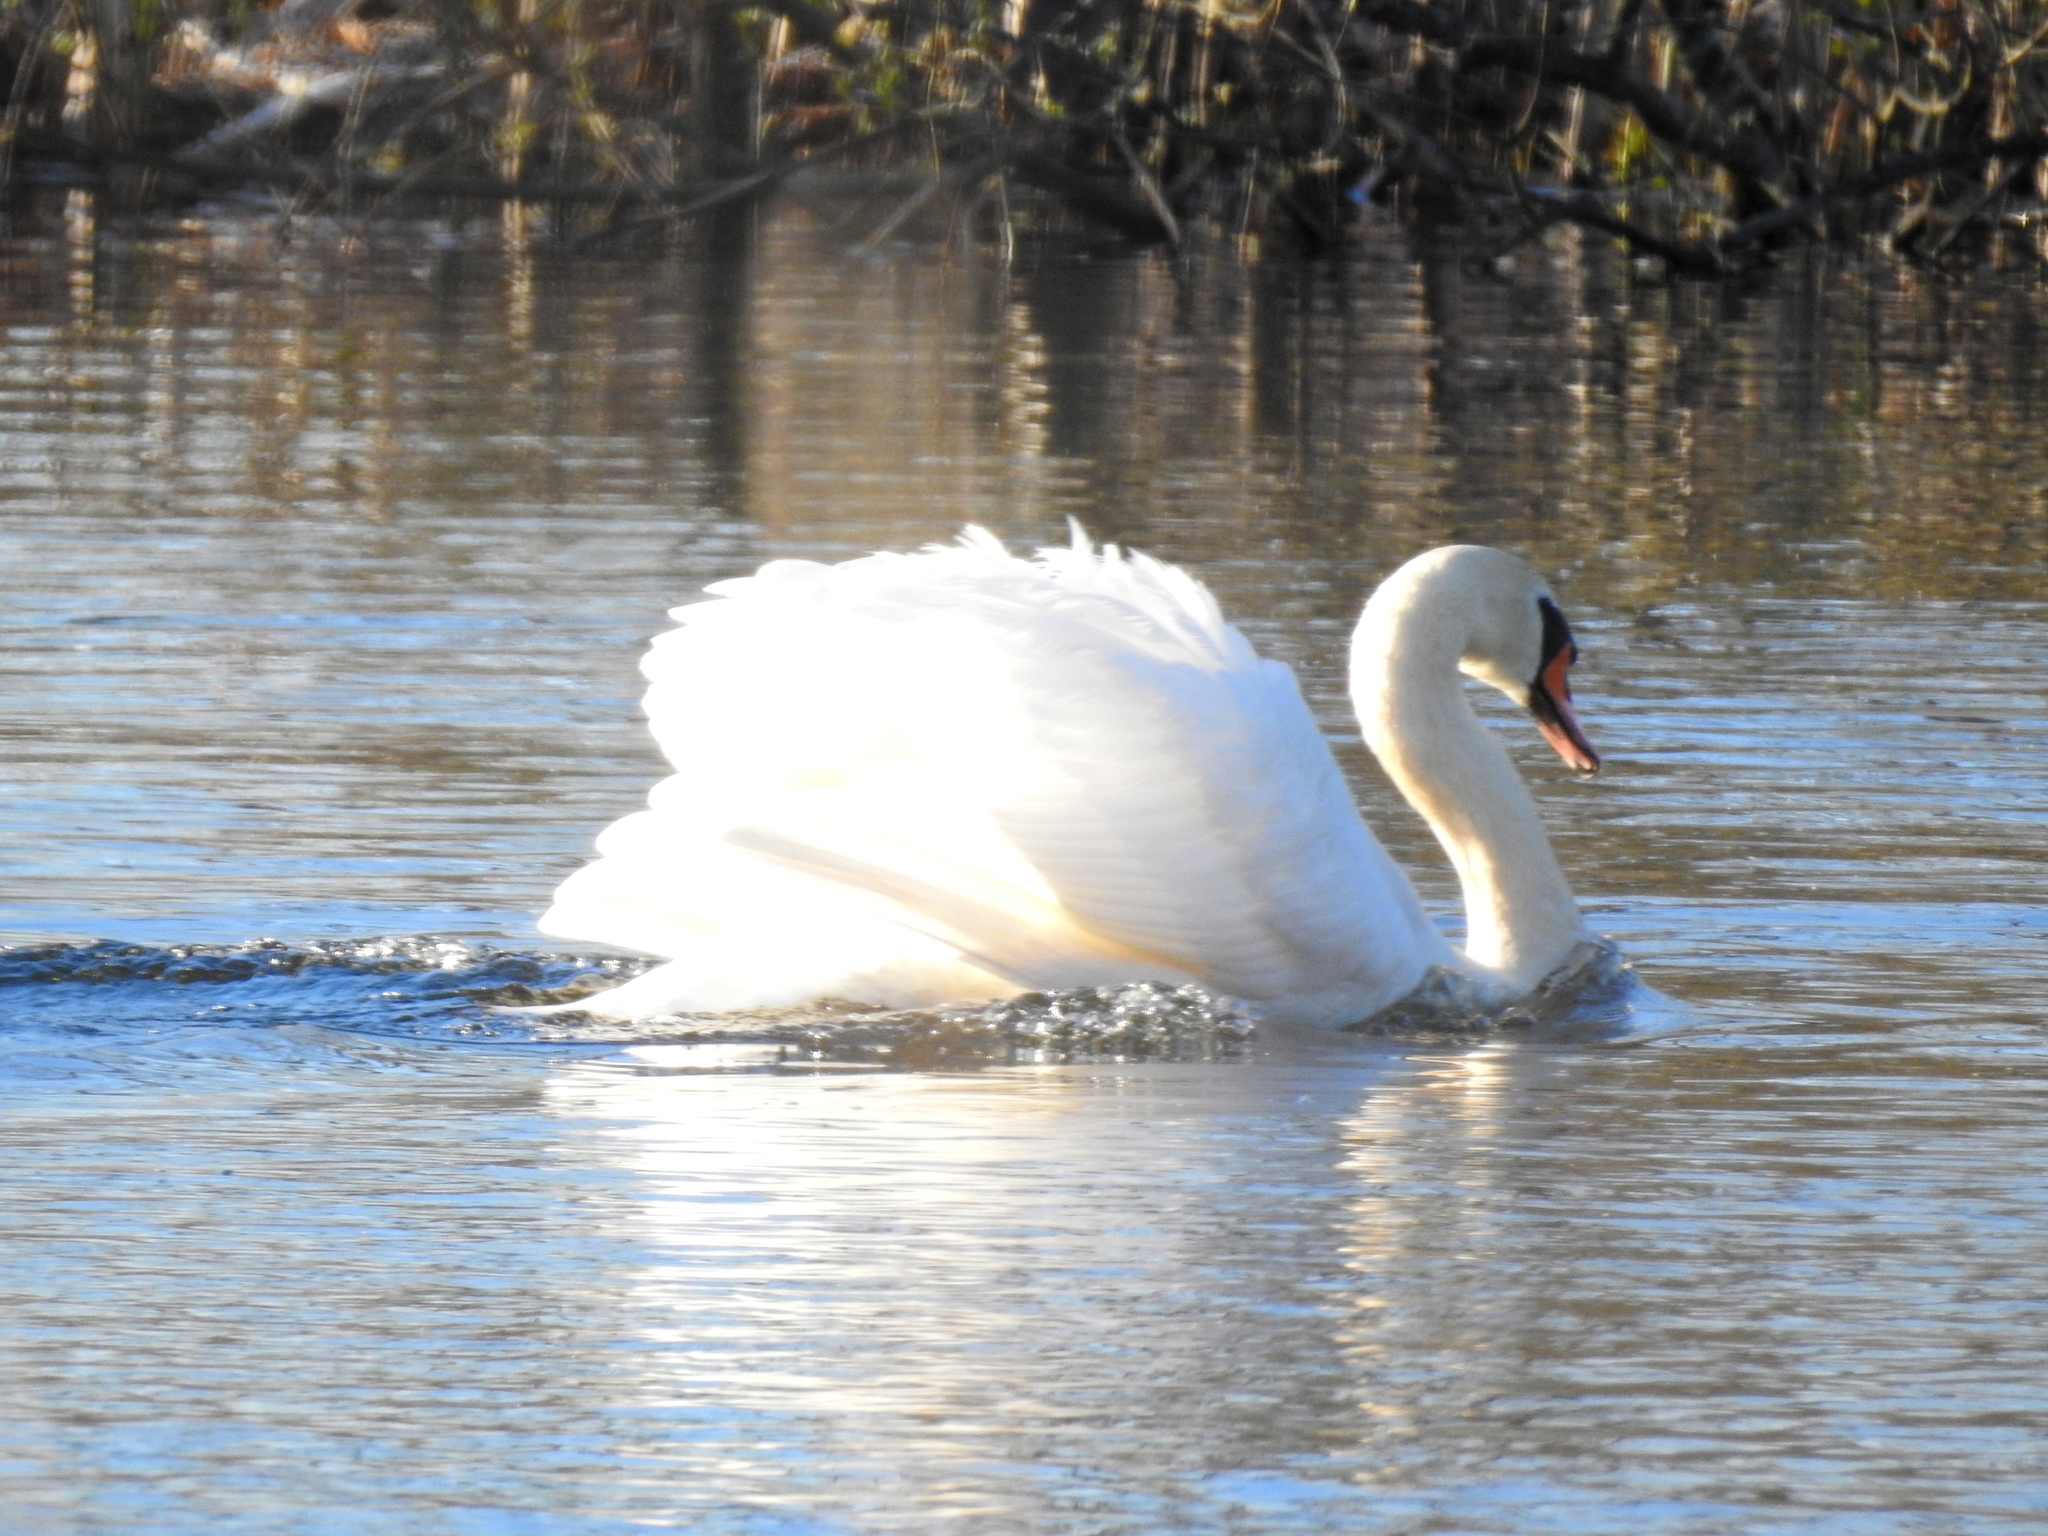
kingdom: Animalia
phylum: Chordata
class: Aves
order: Anseriformes
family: Anatidae
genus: Cygnus
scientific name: Cygnus olor
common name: Mute swan
